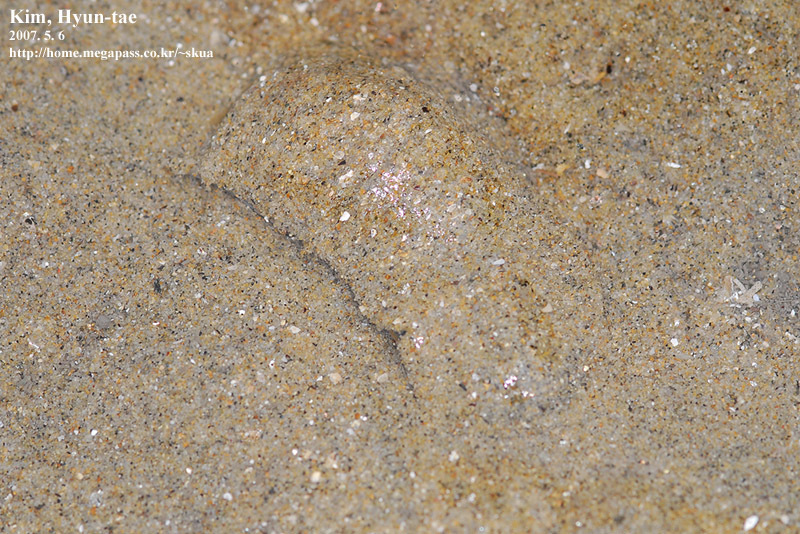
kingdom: Animalia
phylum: Mollusca
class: Gastropoda
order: Cephalaspidea
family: Haminoeidae
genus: Bullacta
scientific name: Bullacta caurina
